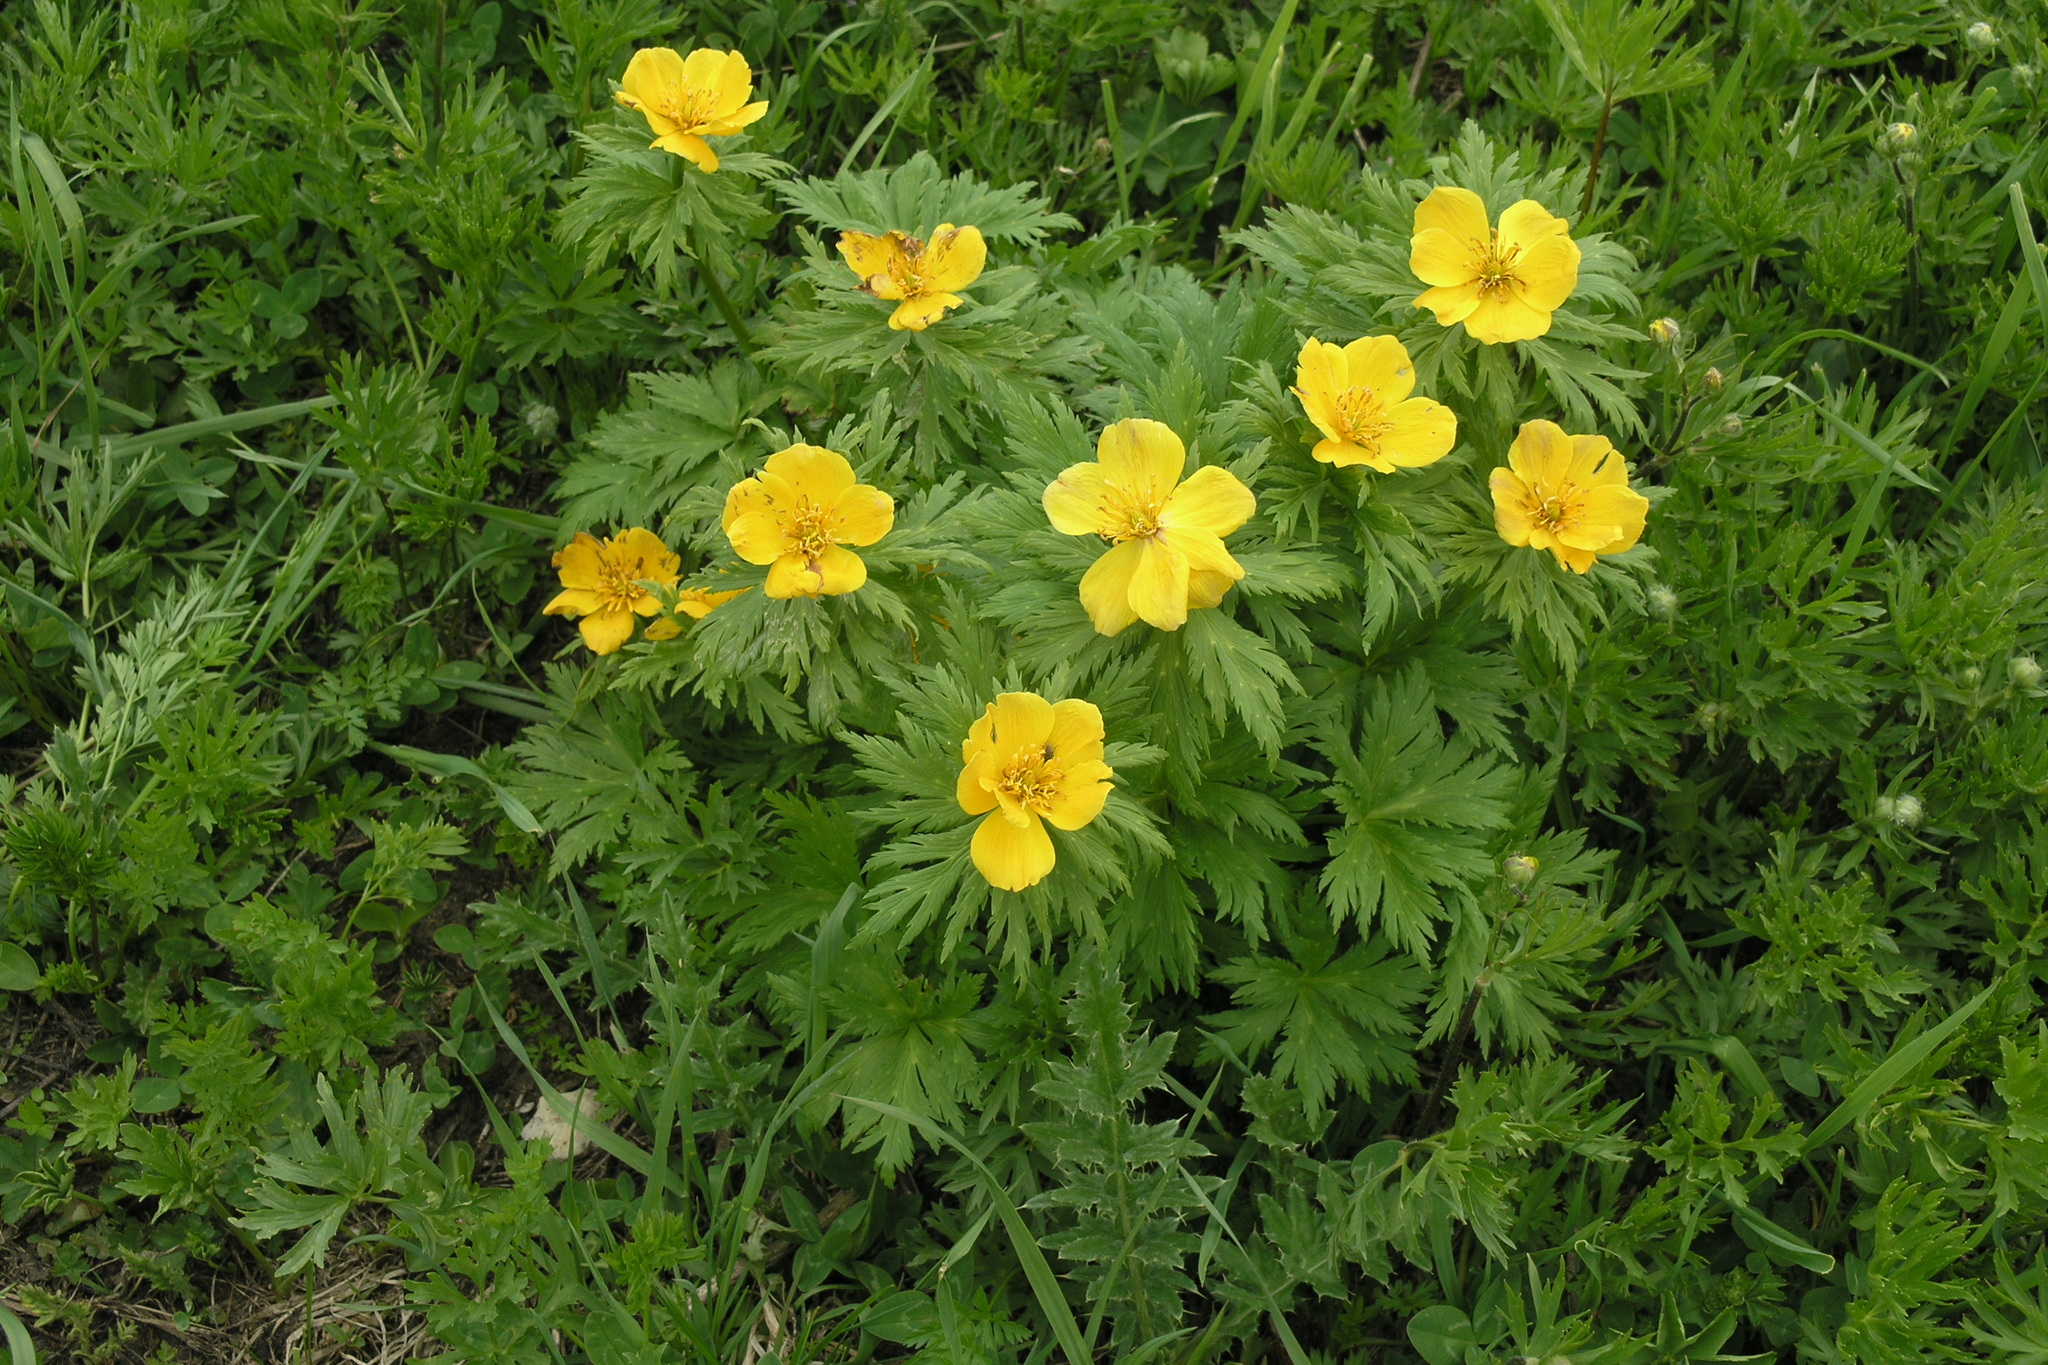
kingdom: Plantae
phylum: Tracheophyta
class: Magnoliopsida
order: Ranunculales
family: Ranunculaceae
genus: Trollius
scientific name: Trollius ranunculinus
